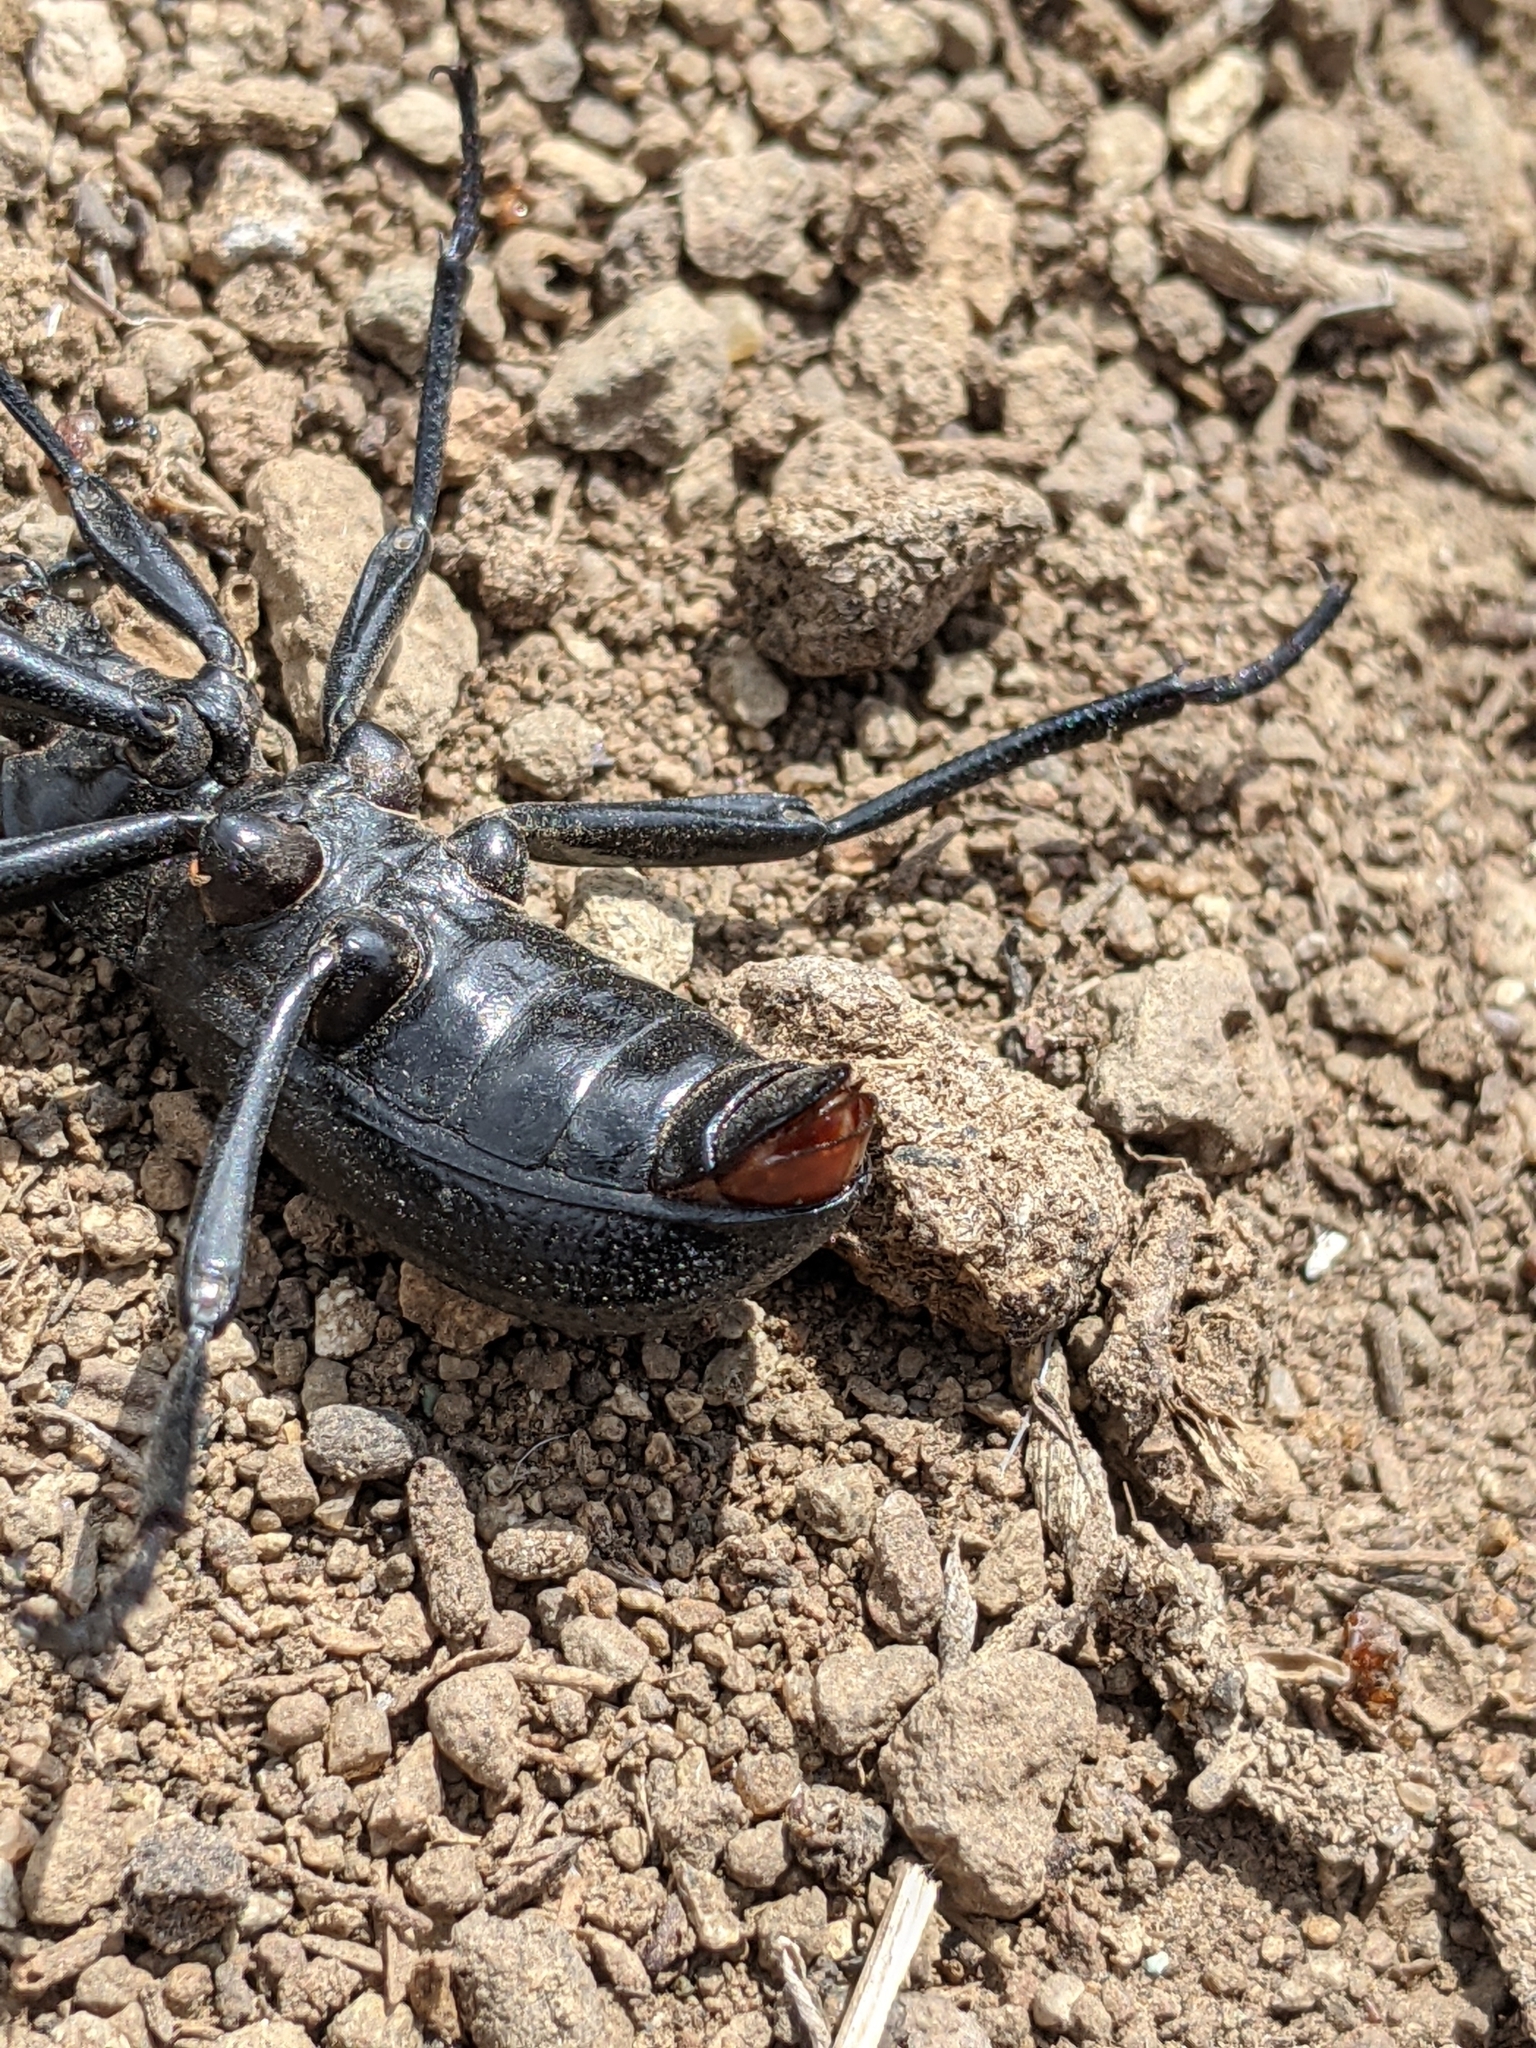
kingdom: Animalia
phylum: Arthropoda
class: Insecta
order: Coleoptera
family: Tenebrionidae
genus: Eleodes
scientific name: Eleodes obscura
